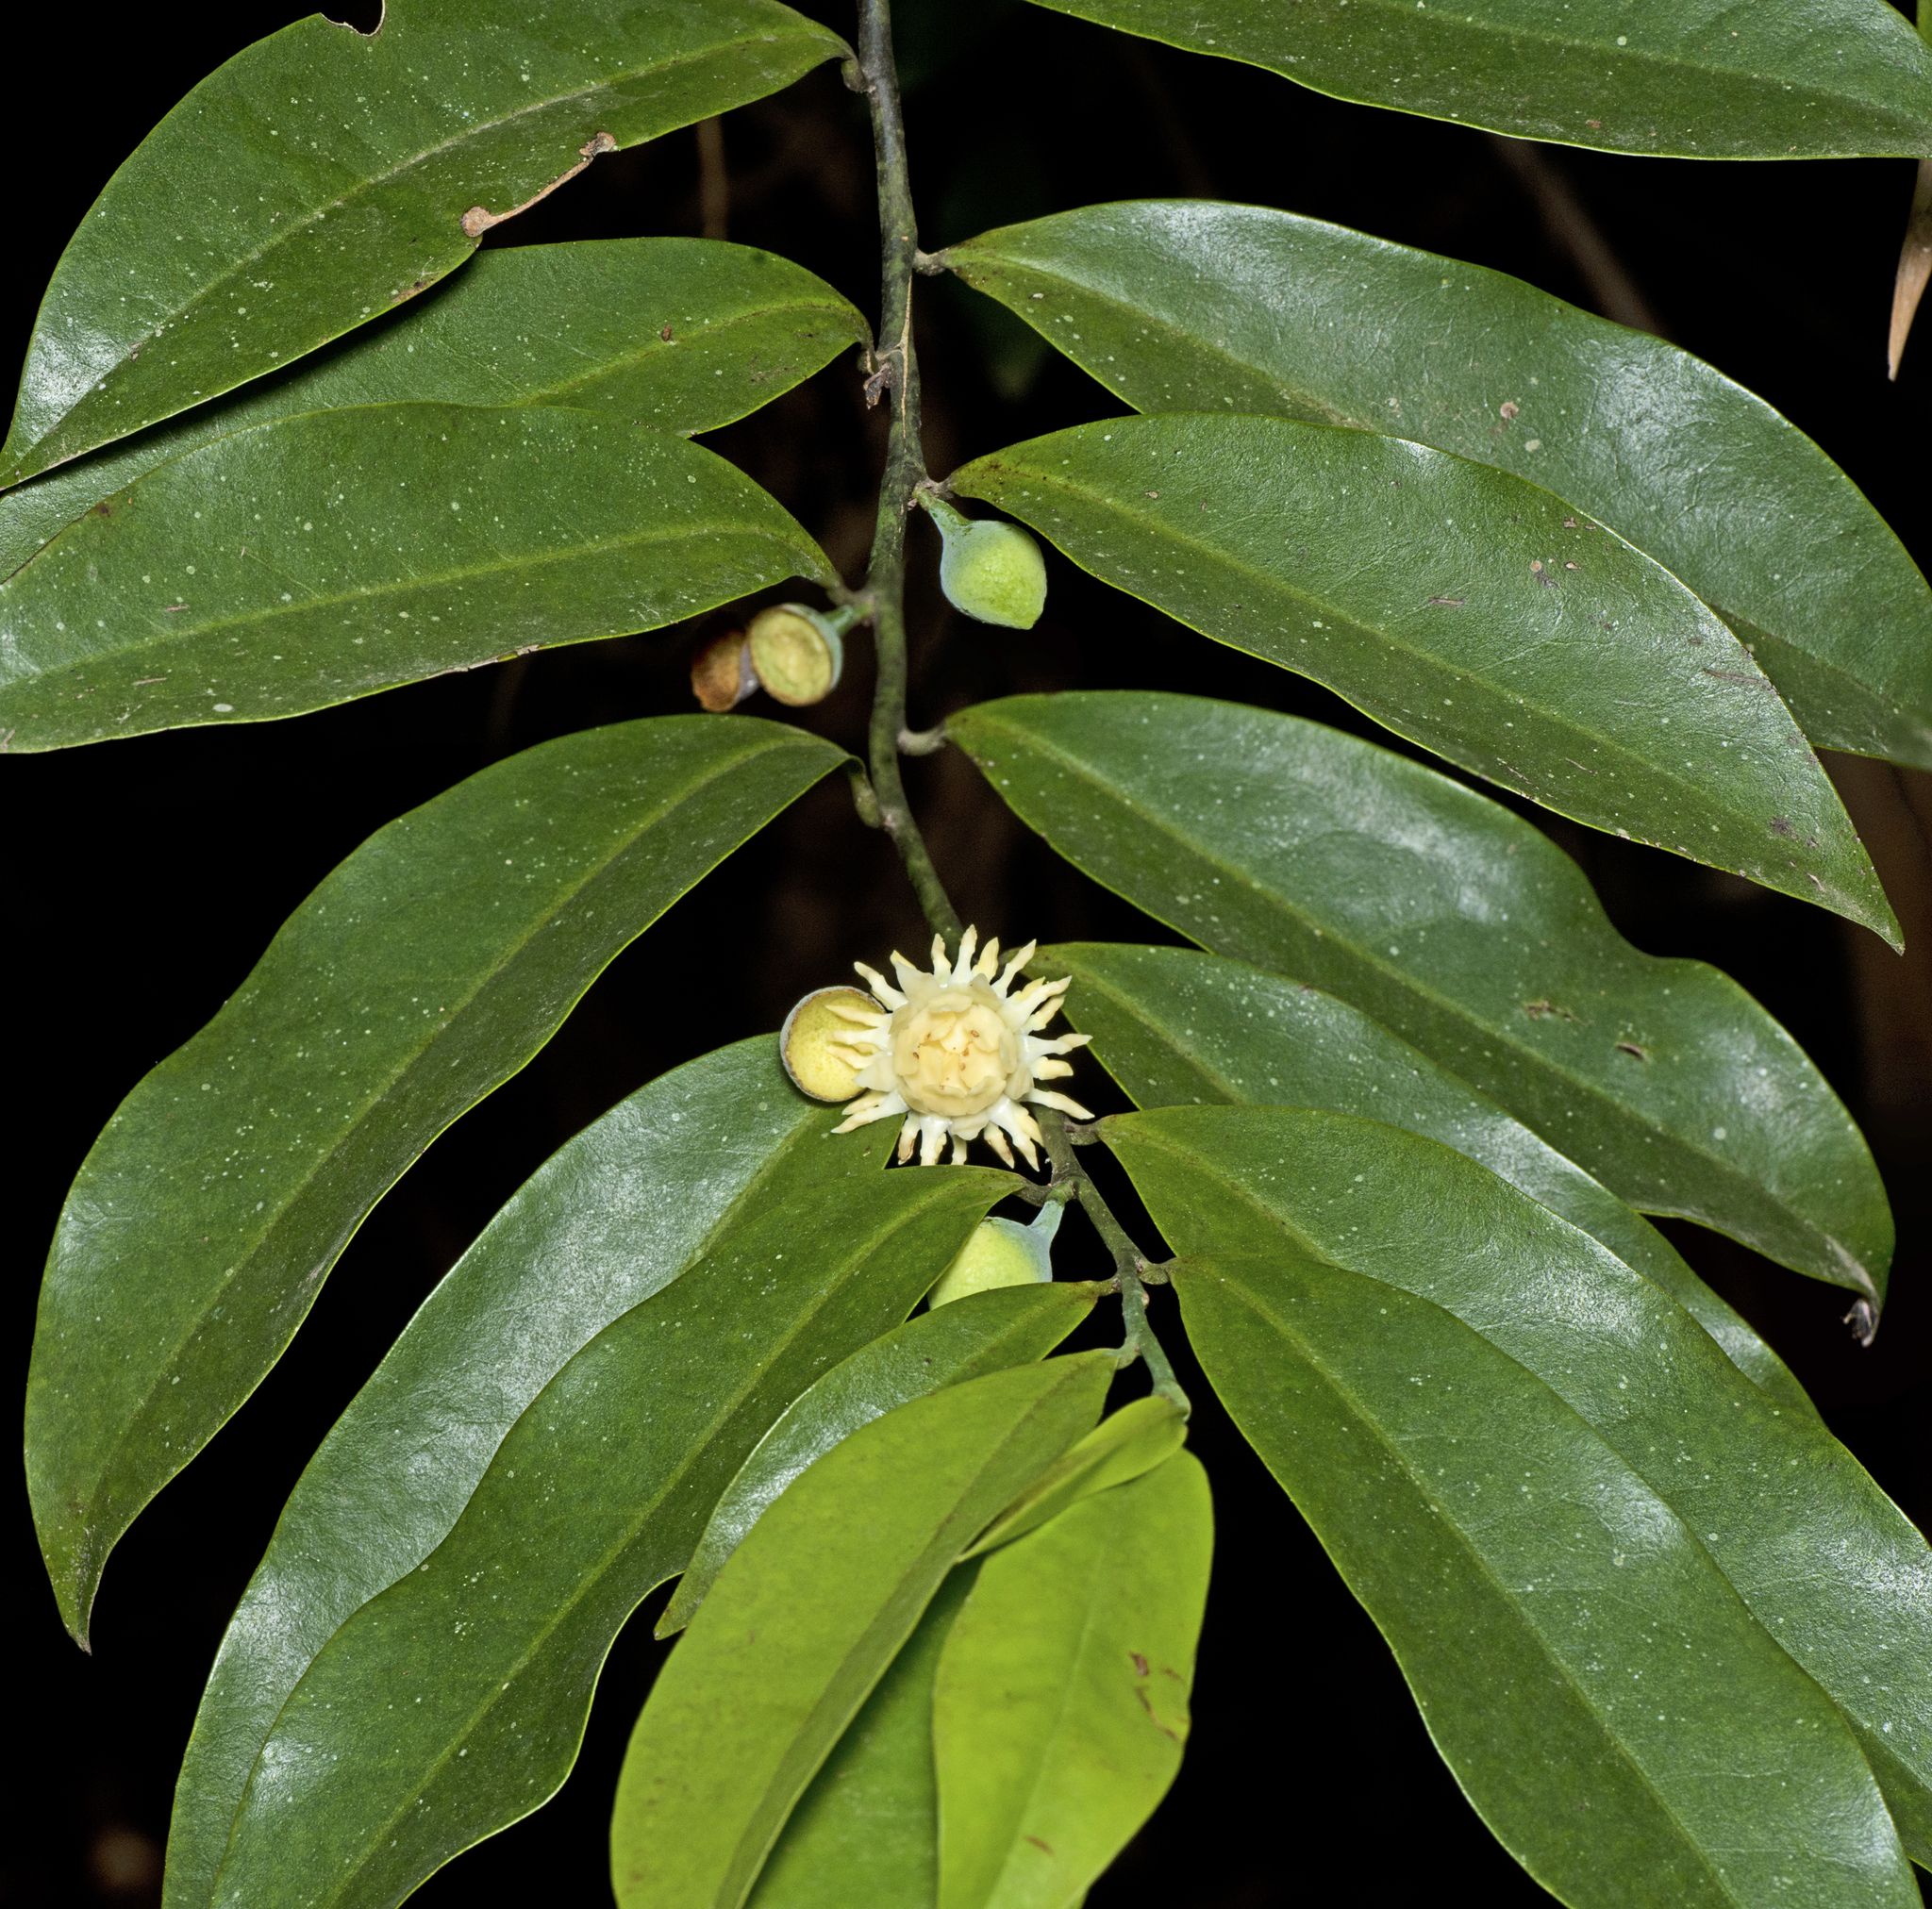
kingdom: Plantae
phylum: Tracheophyta
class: Magnoliopsida
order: Magnoliales
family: Eupomatiaceae
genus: Eupomatia
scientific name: Eupomatia laurina
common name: Bolwarra
